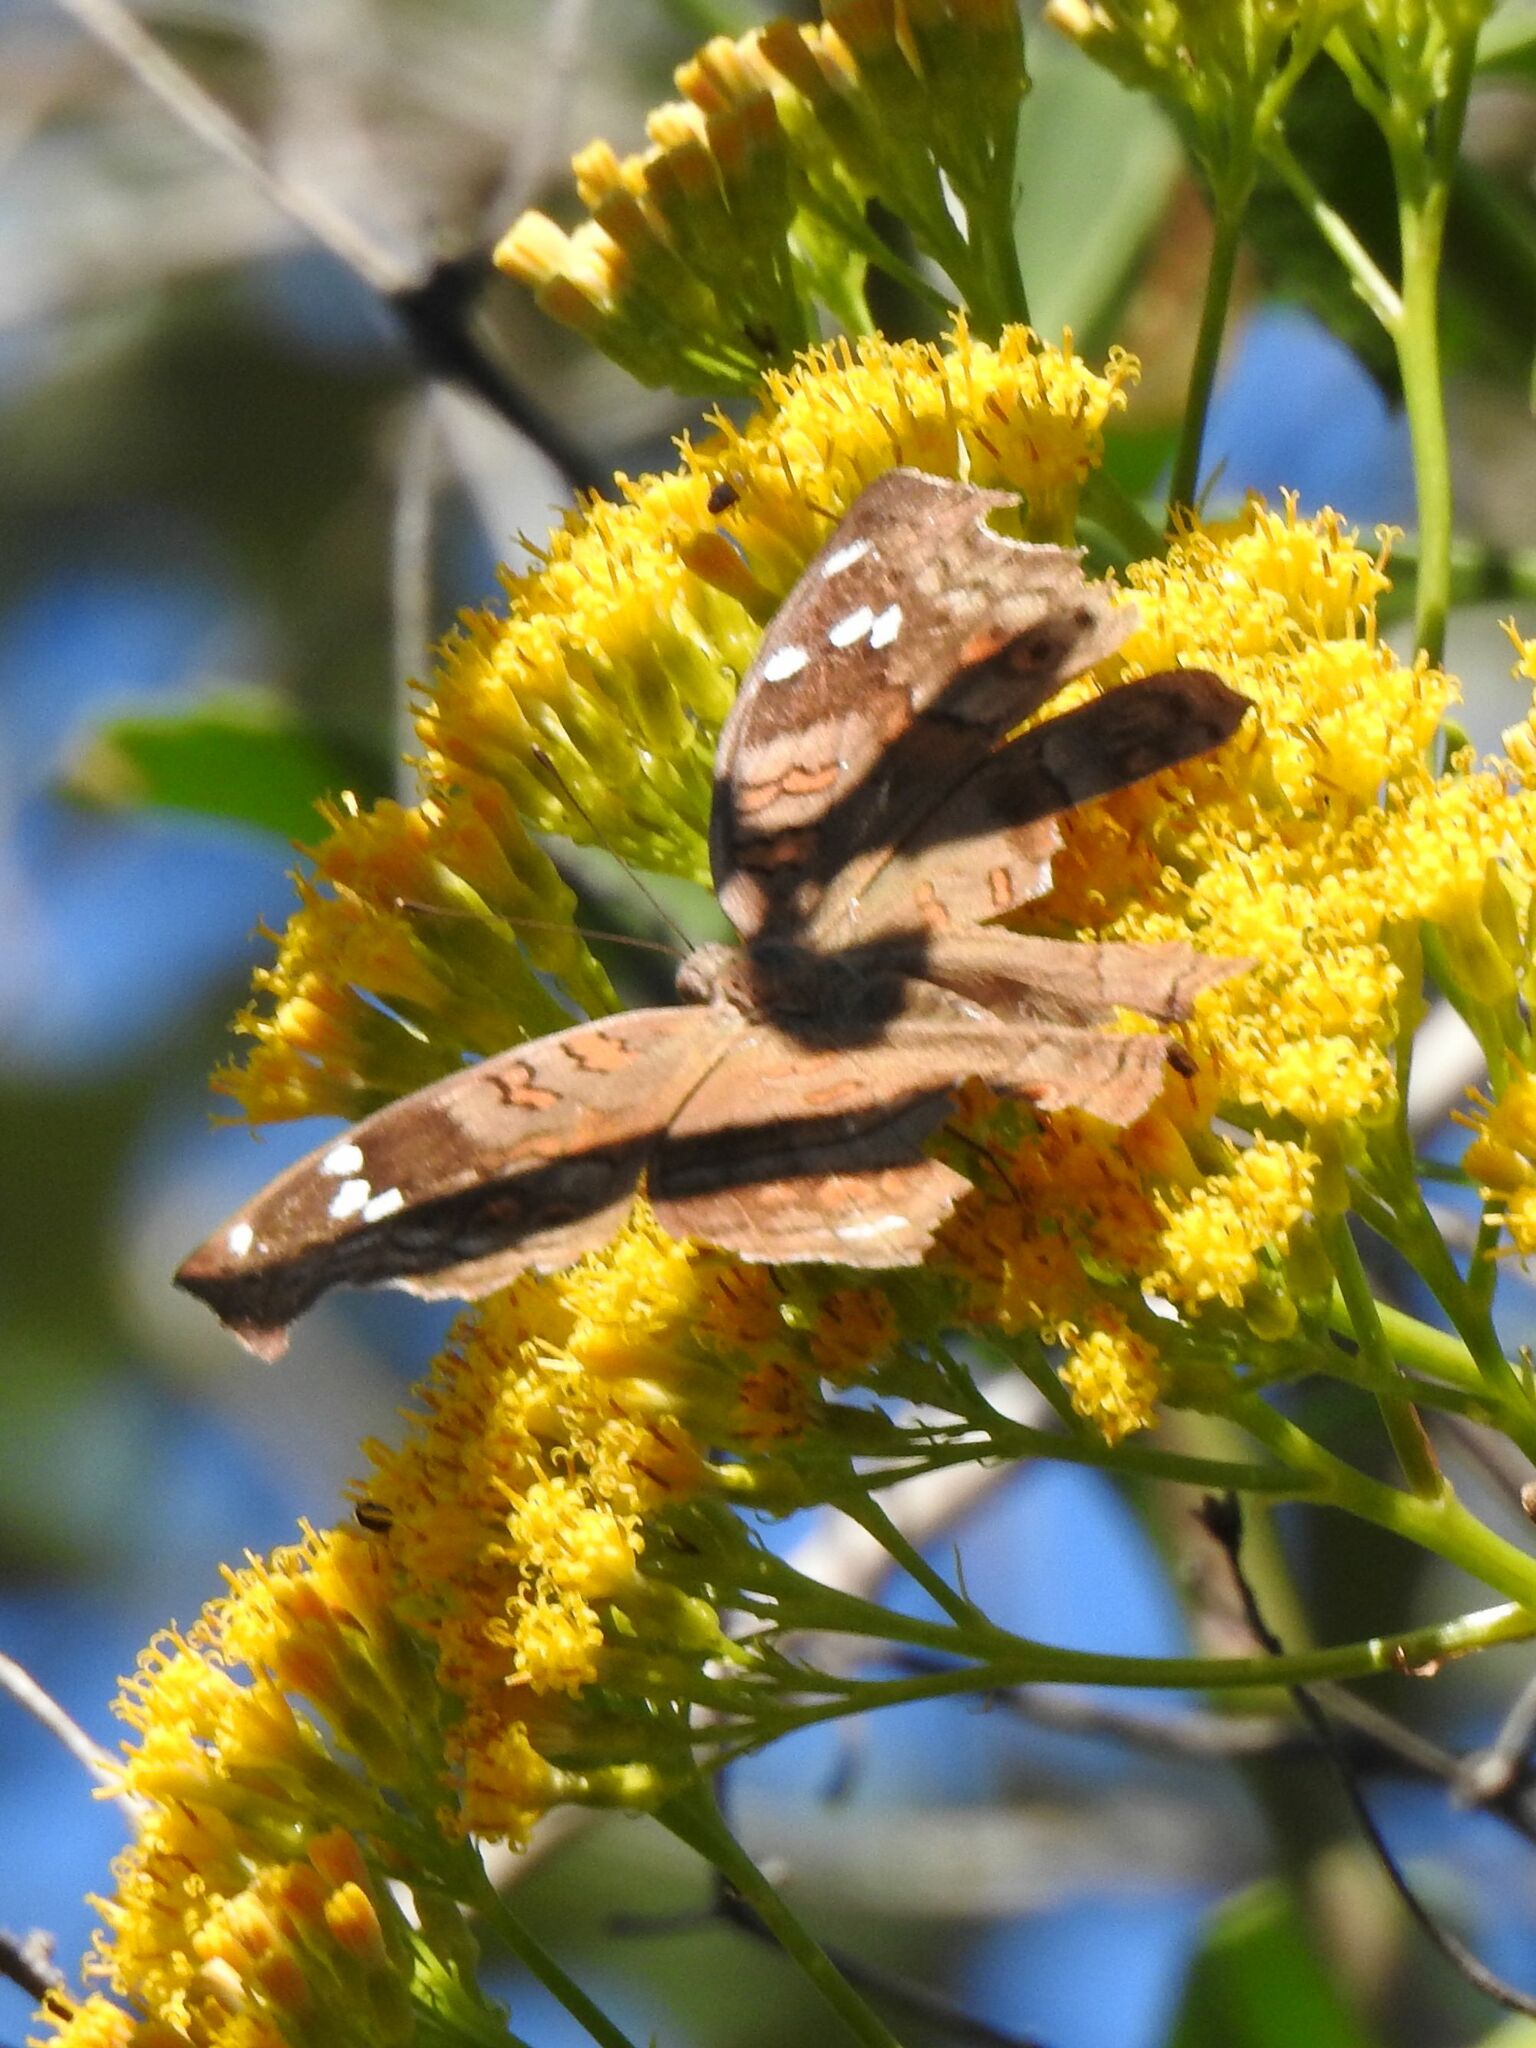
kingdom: Animalia
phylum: Arthropoda
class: Insecta
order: Lepidoptera
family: Nymphalidae
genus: Junonia
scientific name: Junonia natalica
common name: Brown pansy
